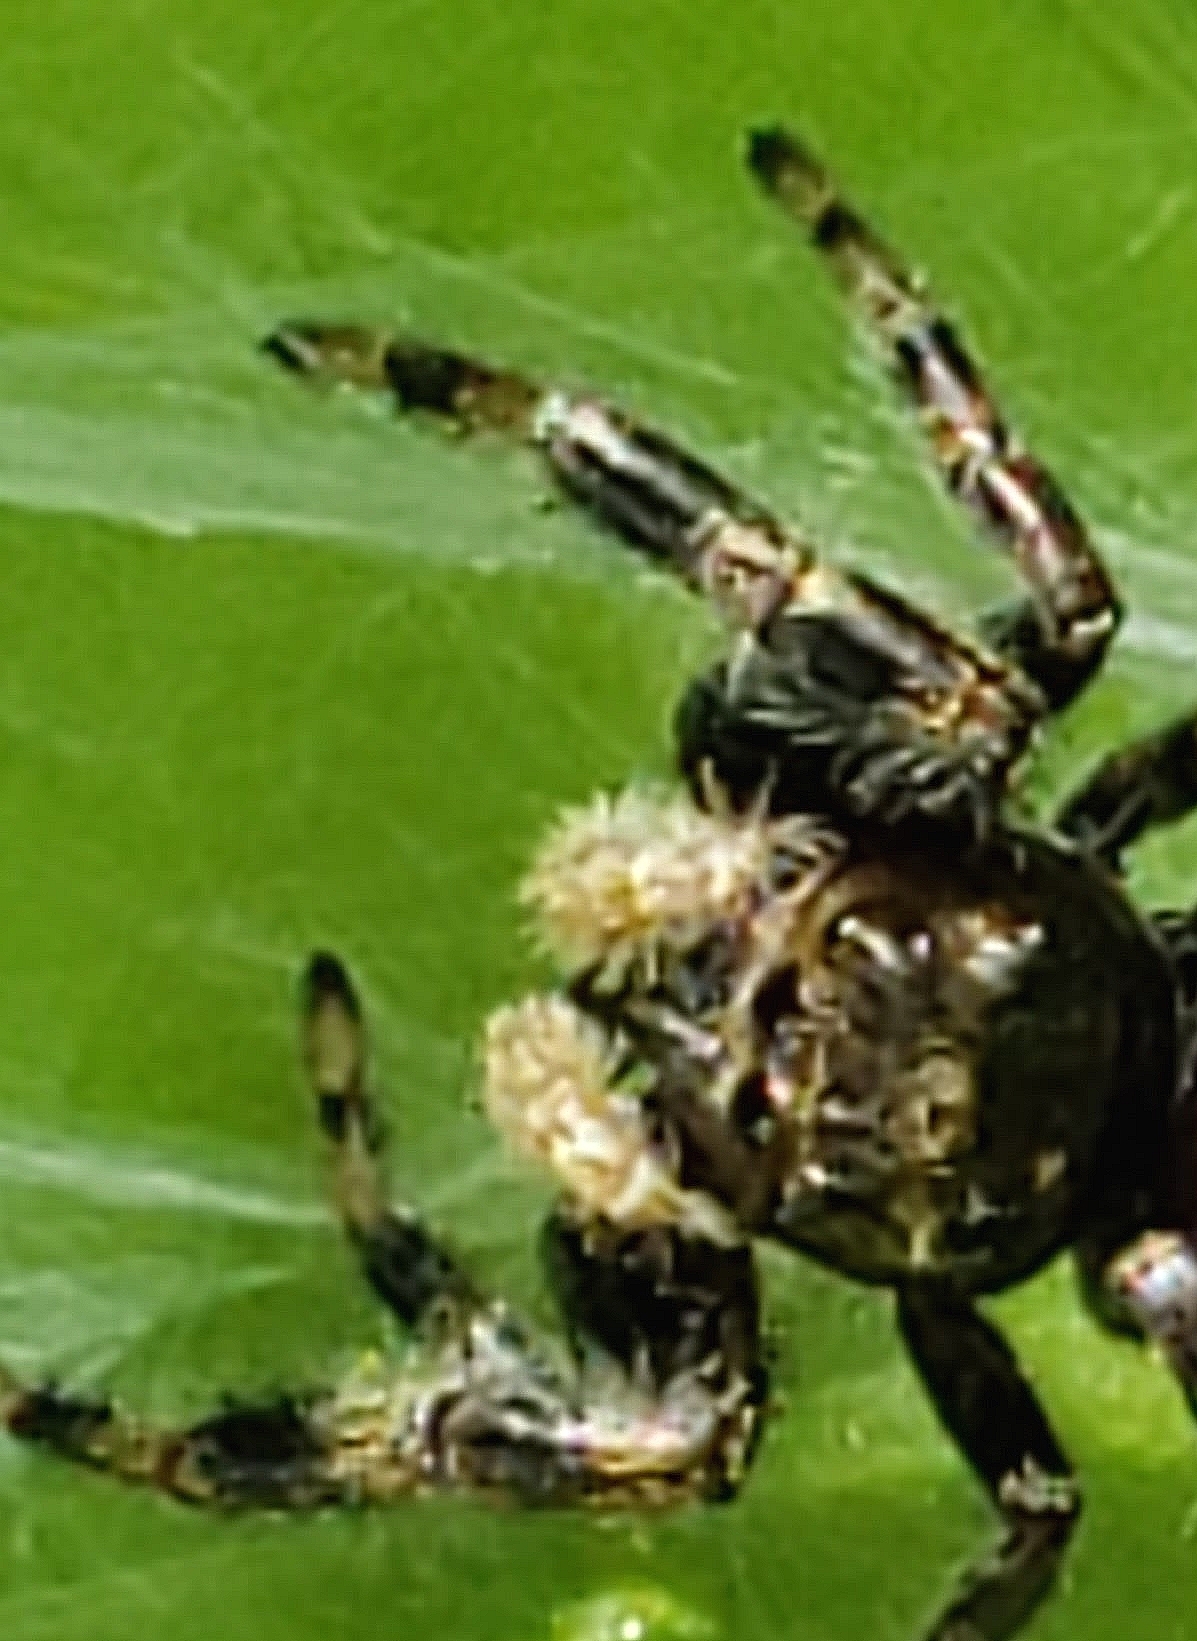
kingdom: Animalia
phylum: Arthropoda
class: Arachnida
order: Araneae
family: Salticidae
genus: Phidippus
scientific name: Phidippus clarus
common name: Brilliant jumping spider
